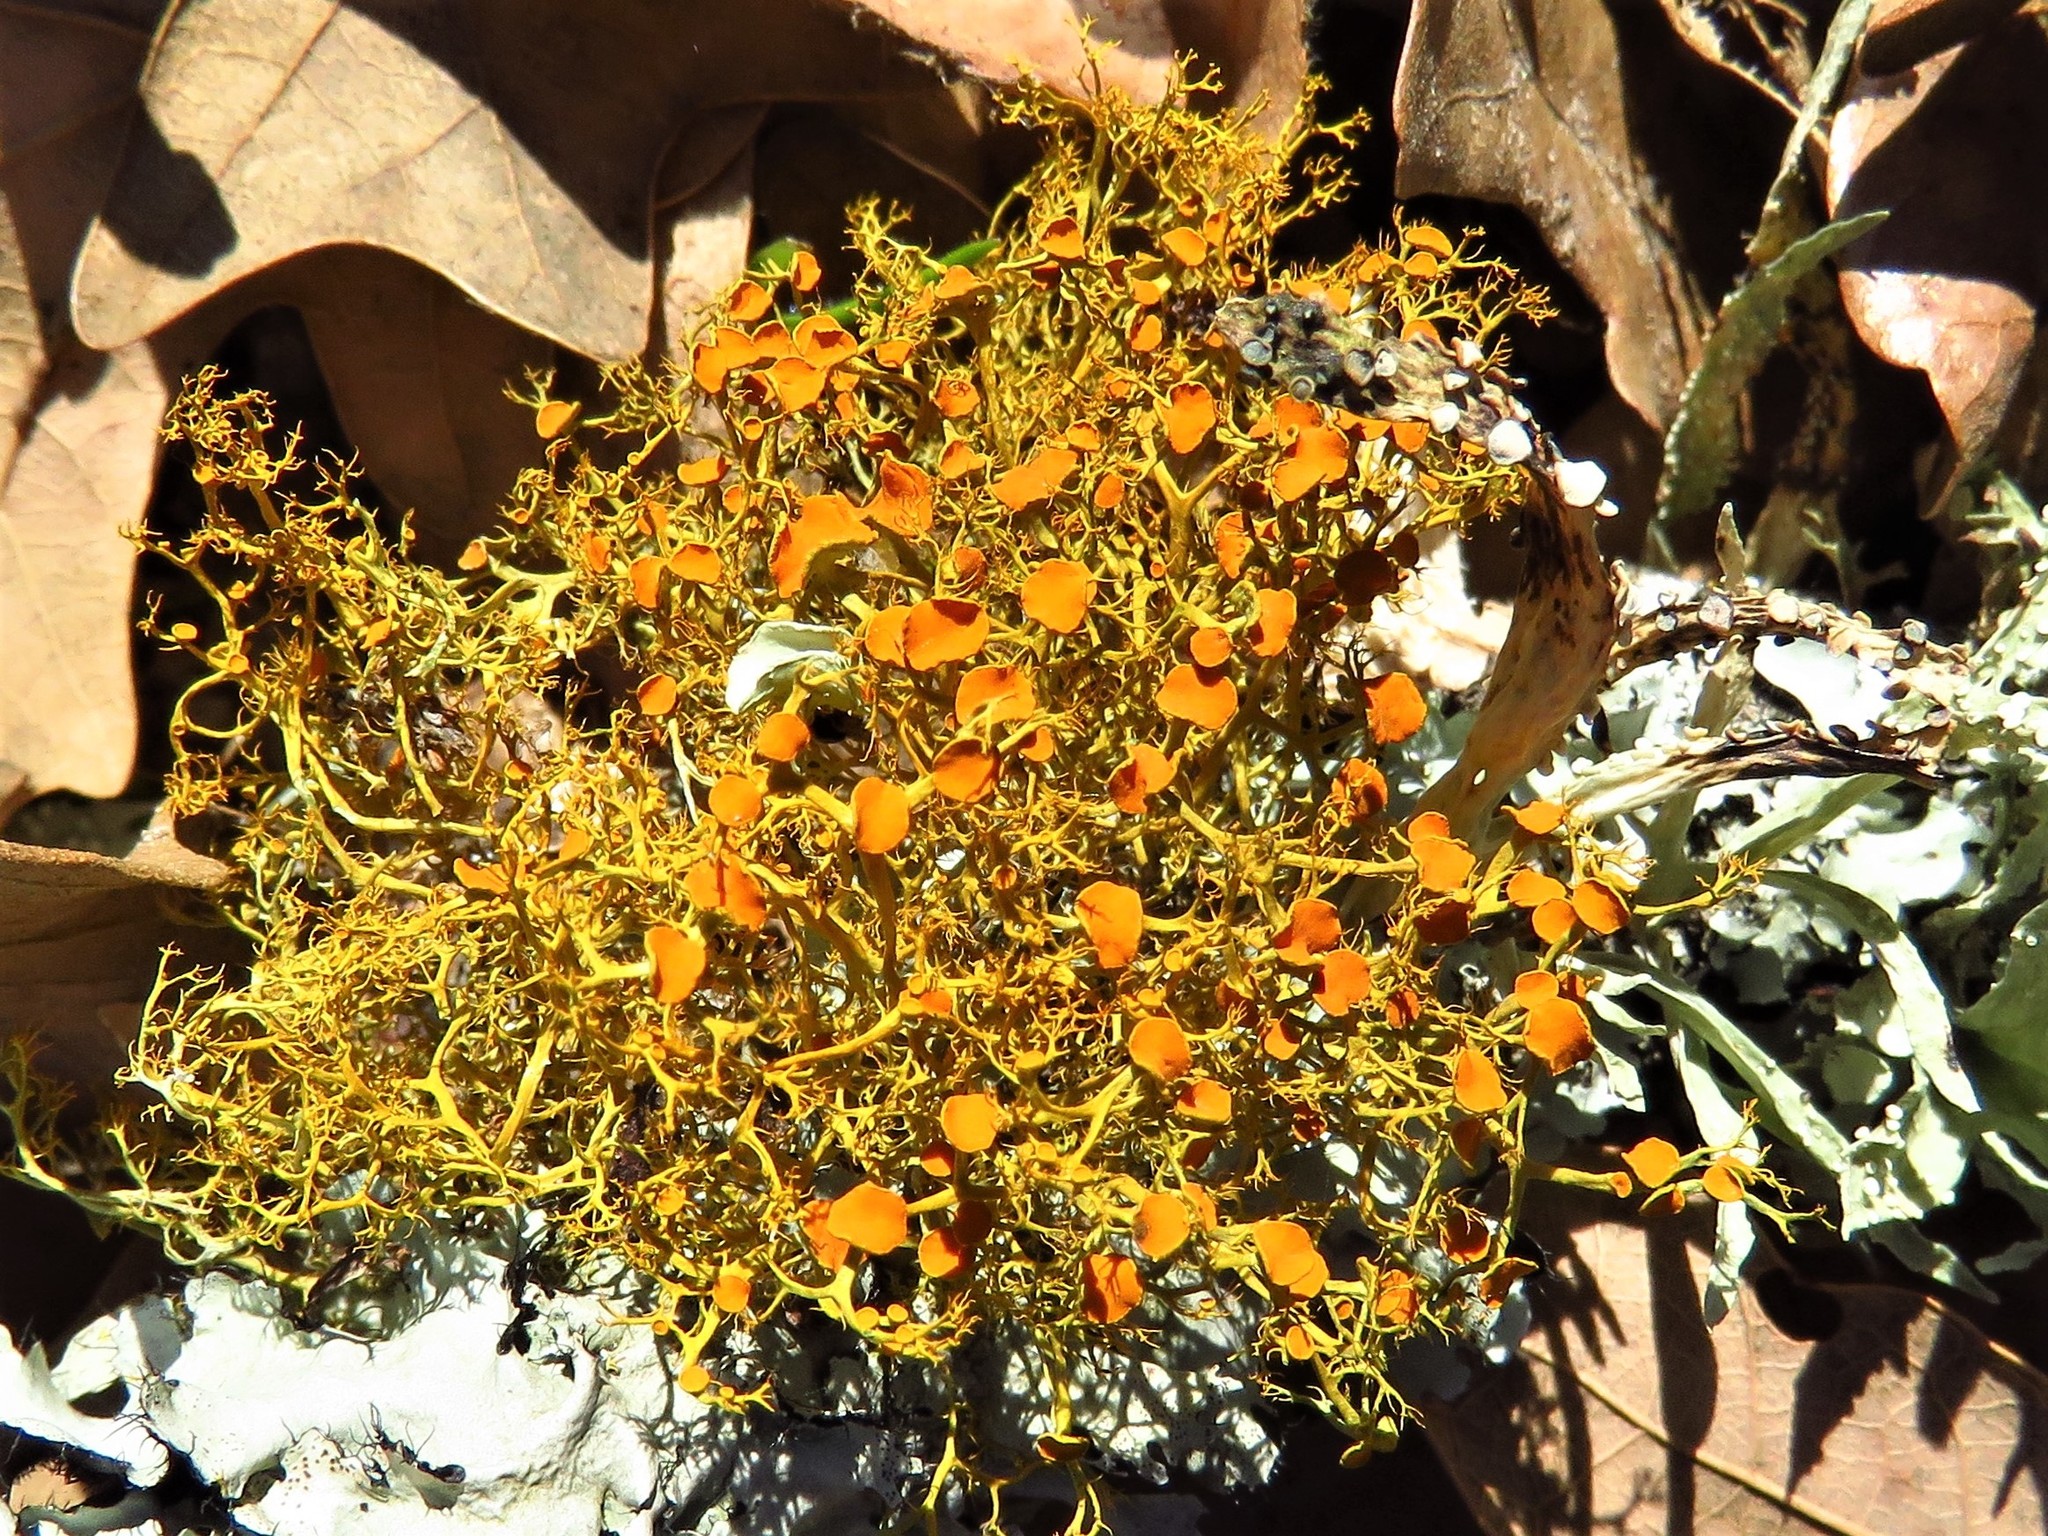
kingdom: Fungi
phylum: Ascomycota
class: Lecanoromycetes
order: Teloschistales
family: Teloschistaceae
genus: Teloschistes
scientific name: Teloschistes exilis
